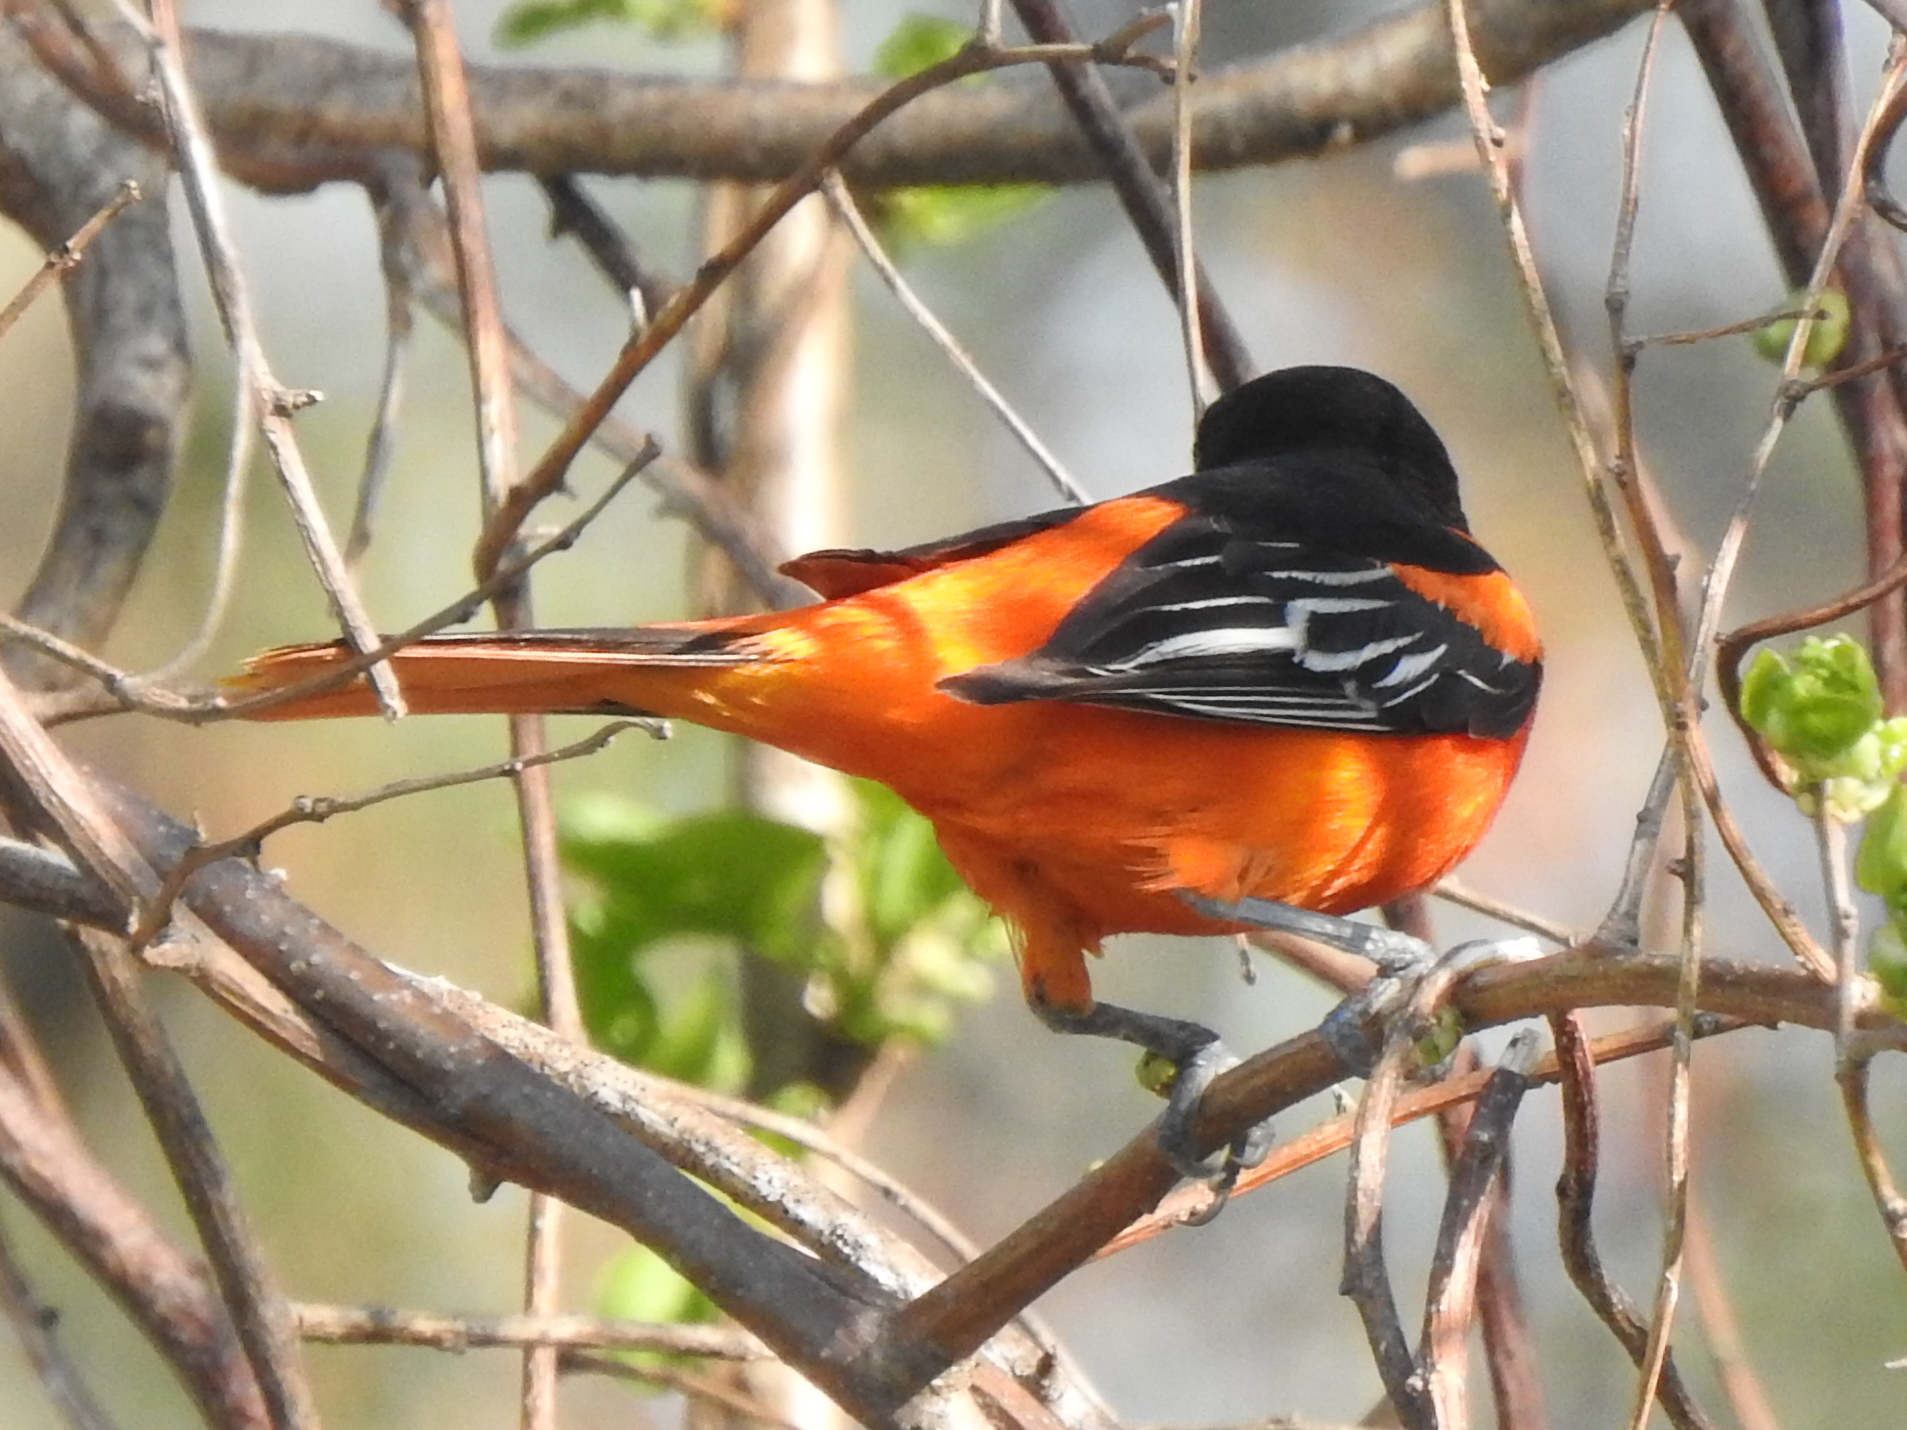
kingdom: Animalia
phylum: Chordata
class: Aves
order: Passeriformes
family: Icteridae
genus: Icterus
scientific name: Icterus galbula
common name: Baltimore oriole
